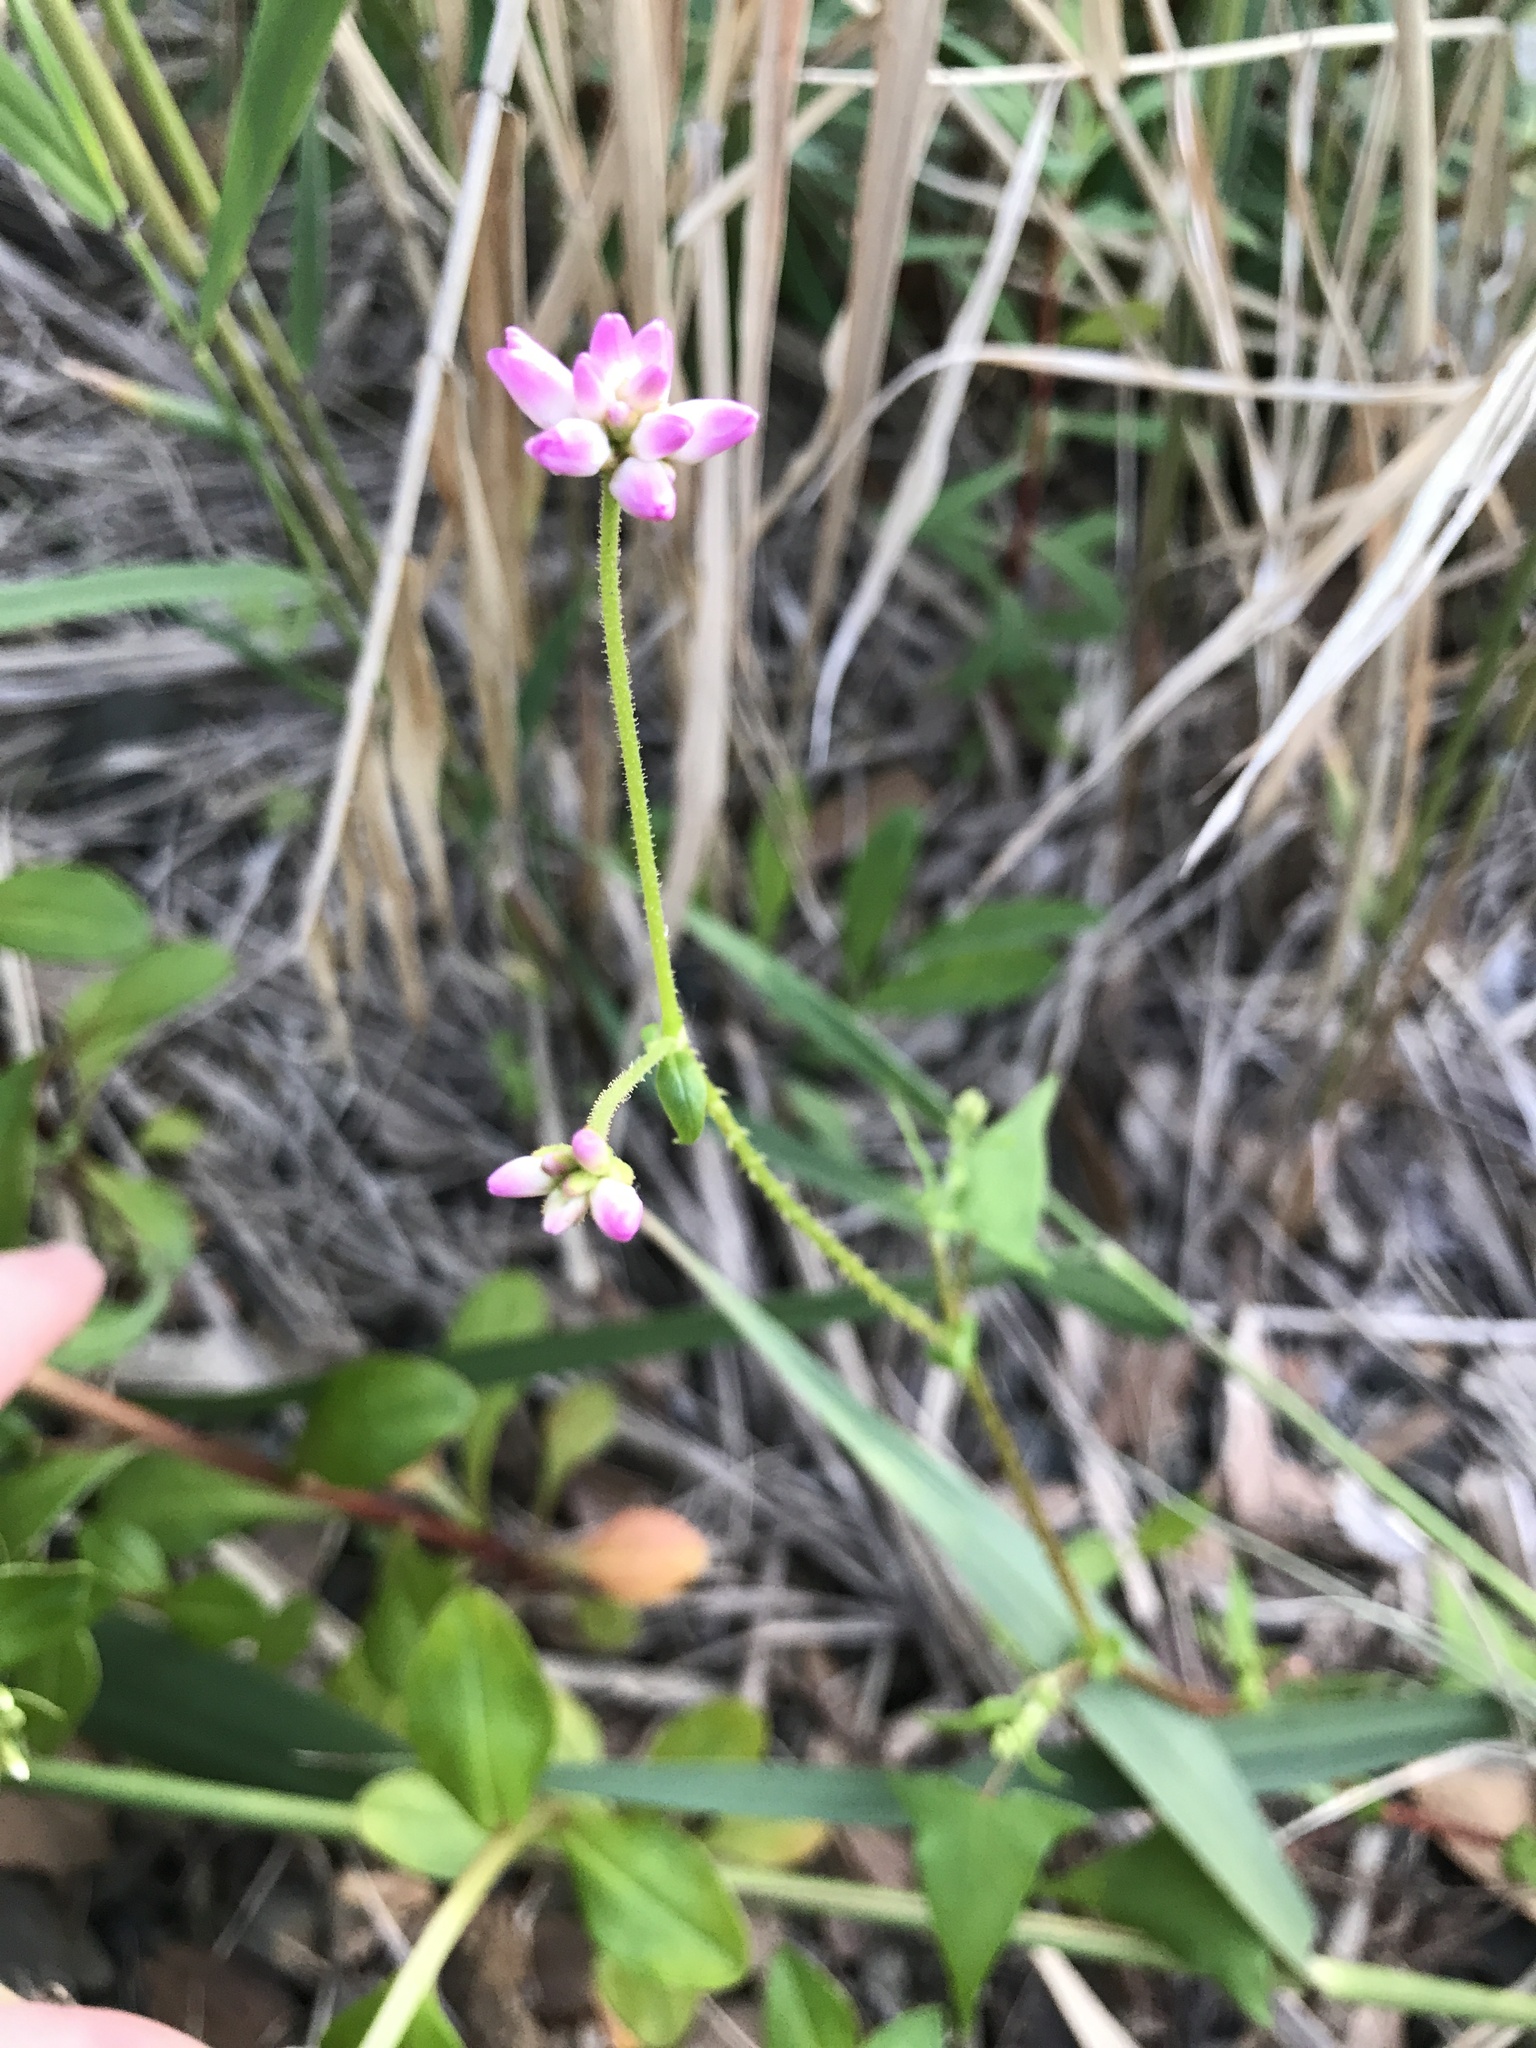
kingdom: Plantae
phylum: Tracheophyta
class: Magnoliopsida
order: Caryophyllales
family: Polygonaceae
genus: Persicaria
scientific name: Persicaria senticosa
